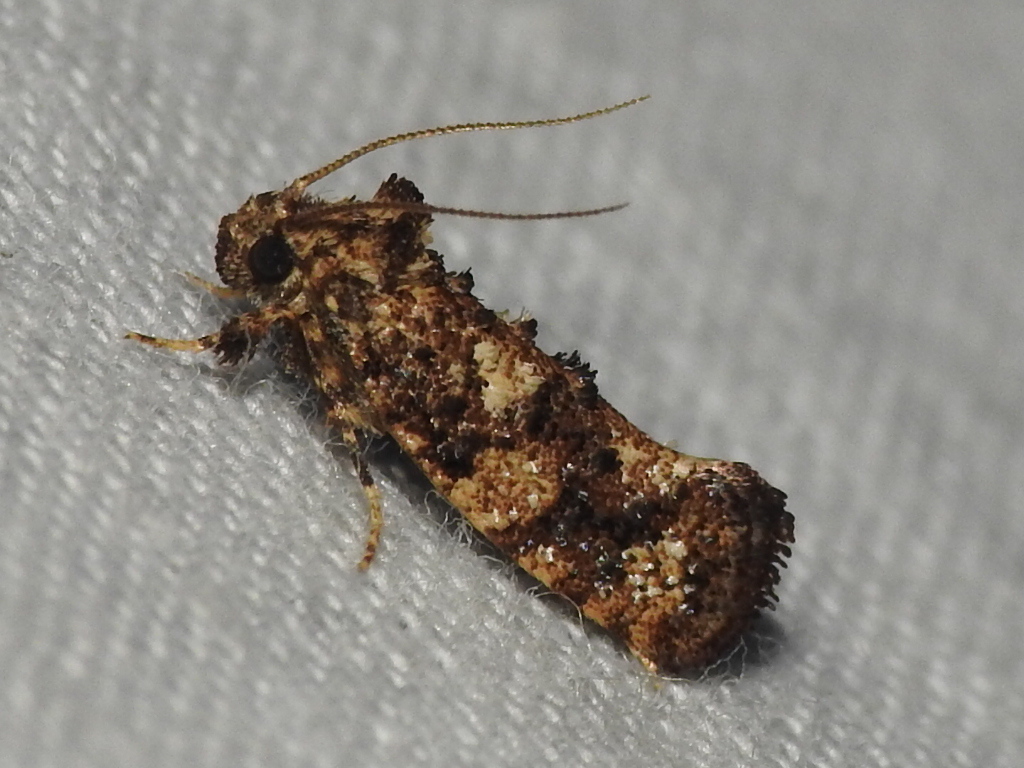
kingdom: Animalia
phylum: Arthropoda
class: Insecta
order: Lepidoptera
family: Tineidae
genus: Acrolophus
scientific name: Acrolophus cressoni
